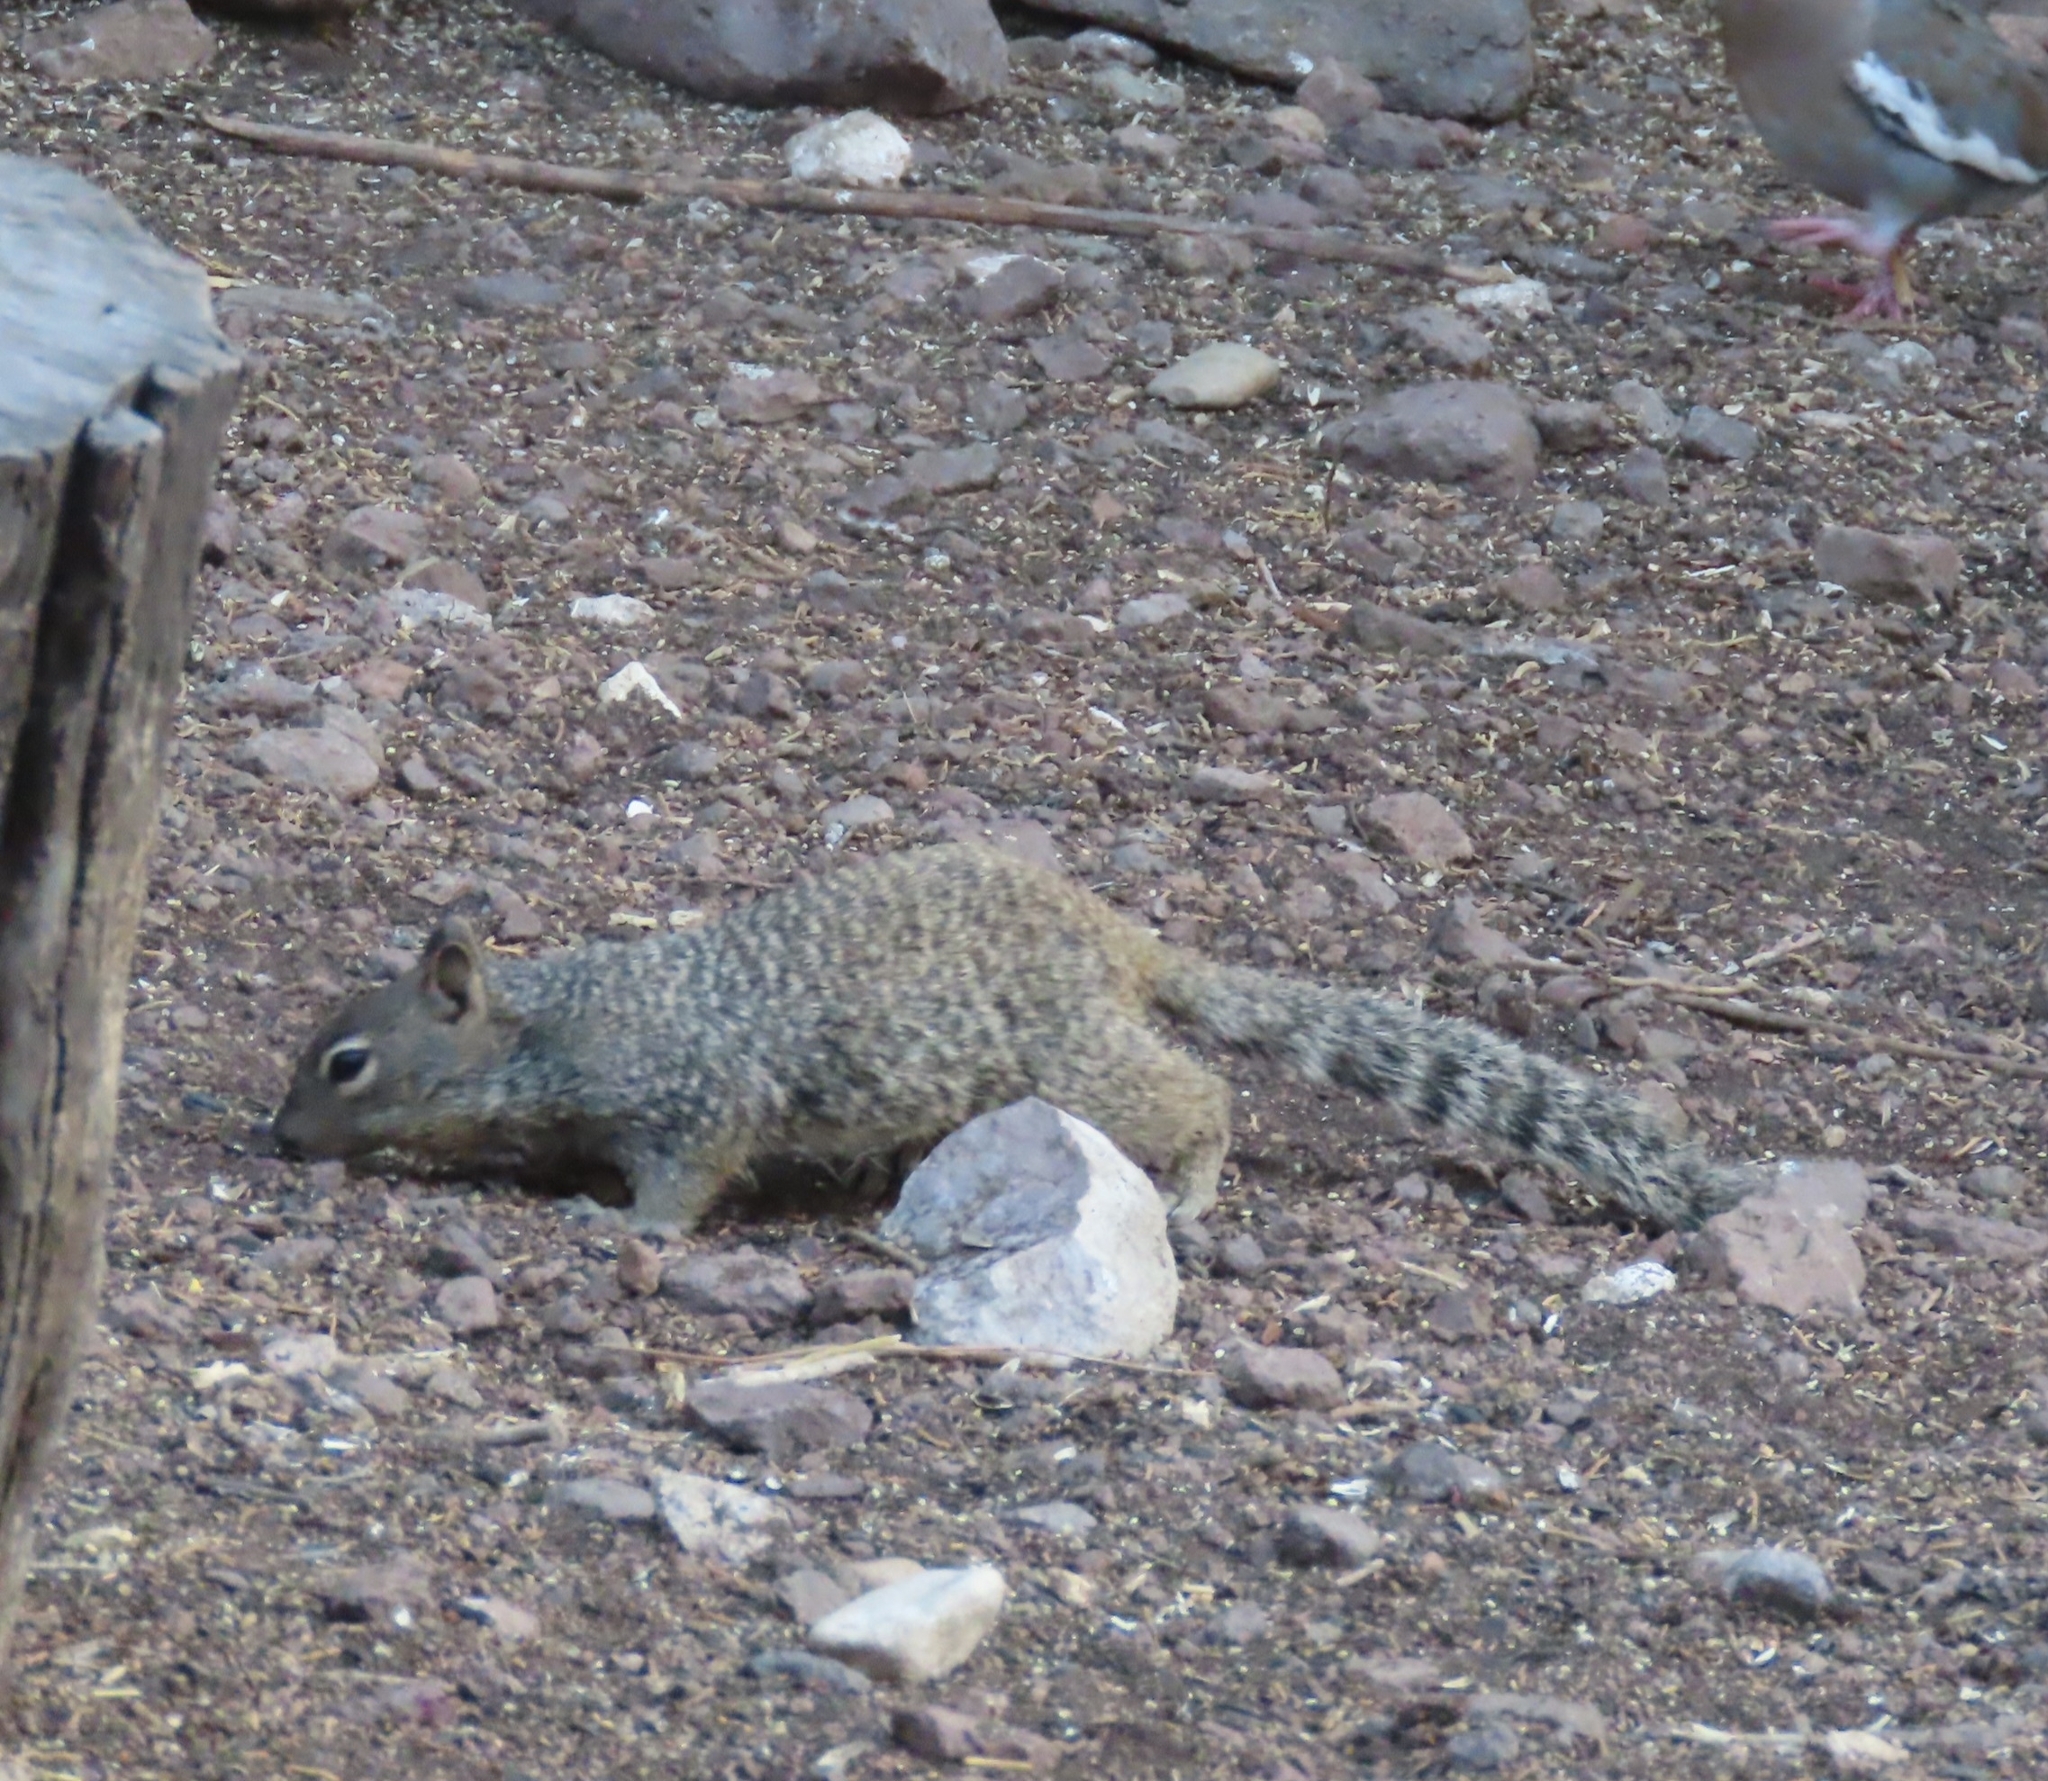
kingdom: Animalia
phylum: Chordata
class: Mammalia
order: Rodentia
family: Sciuridae
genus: Otospermophilus
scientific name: Otospermophilus variegatus
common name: Rock squirrel
